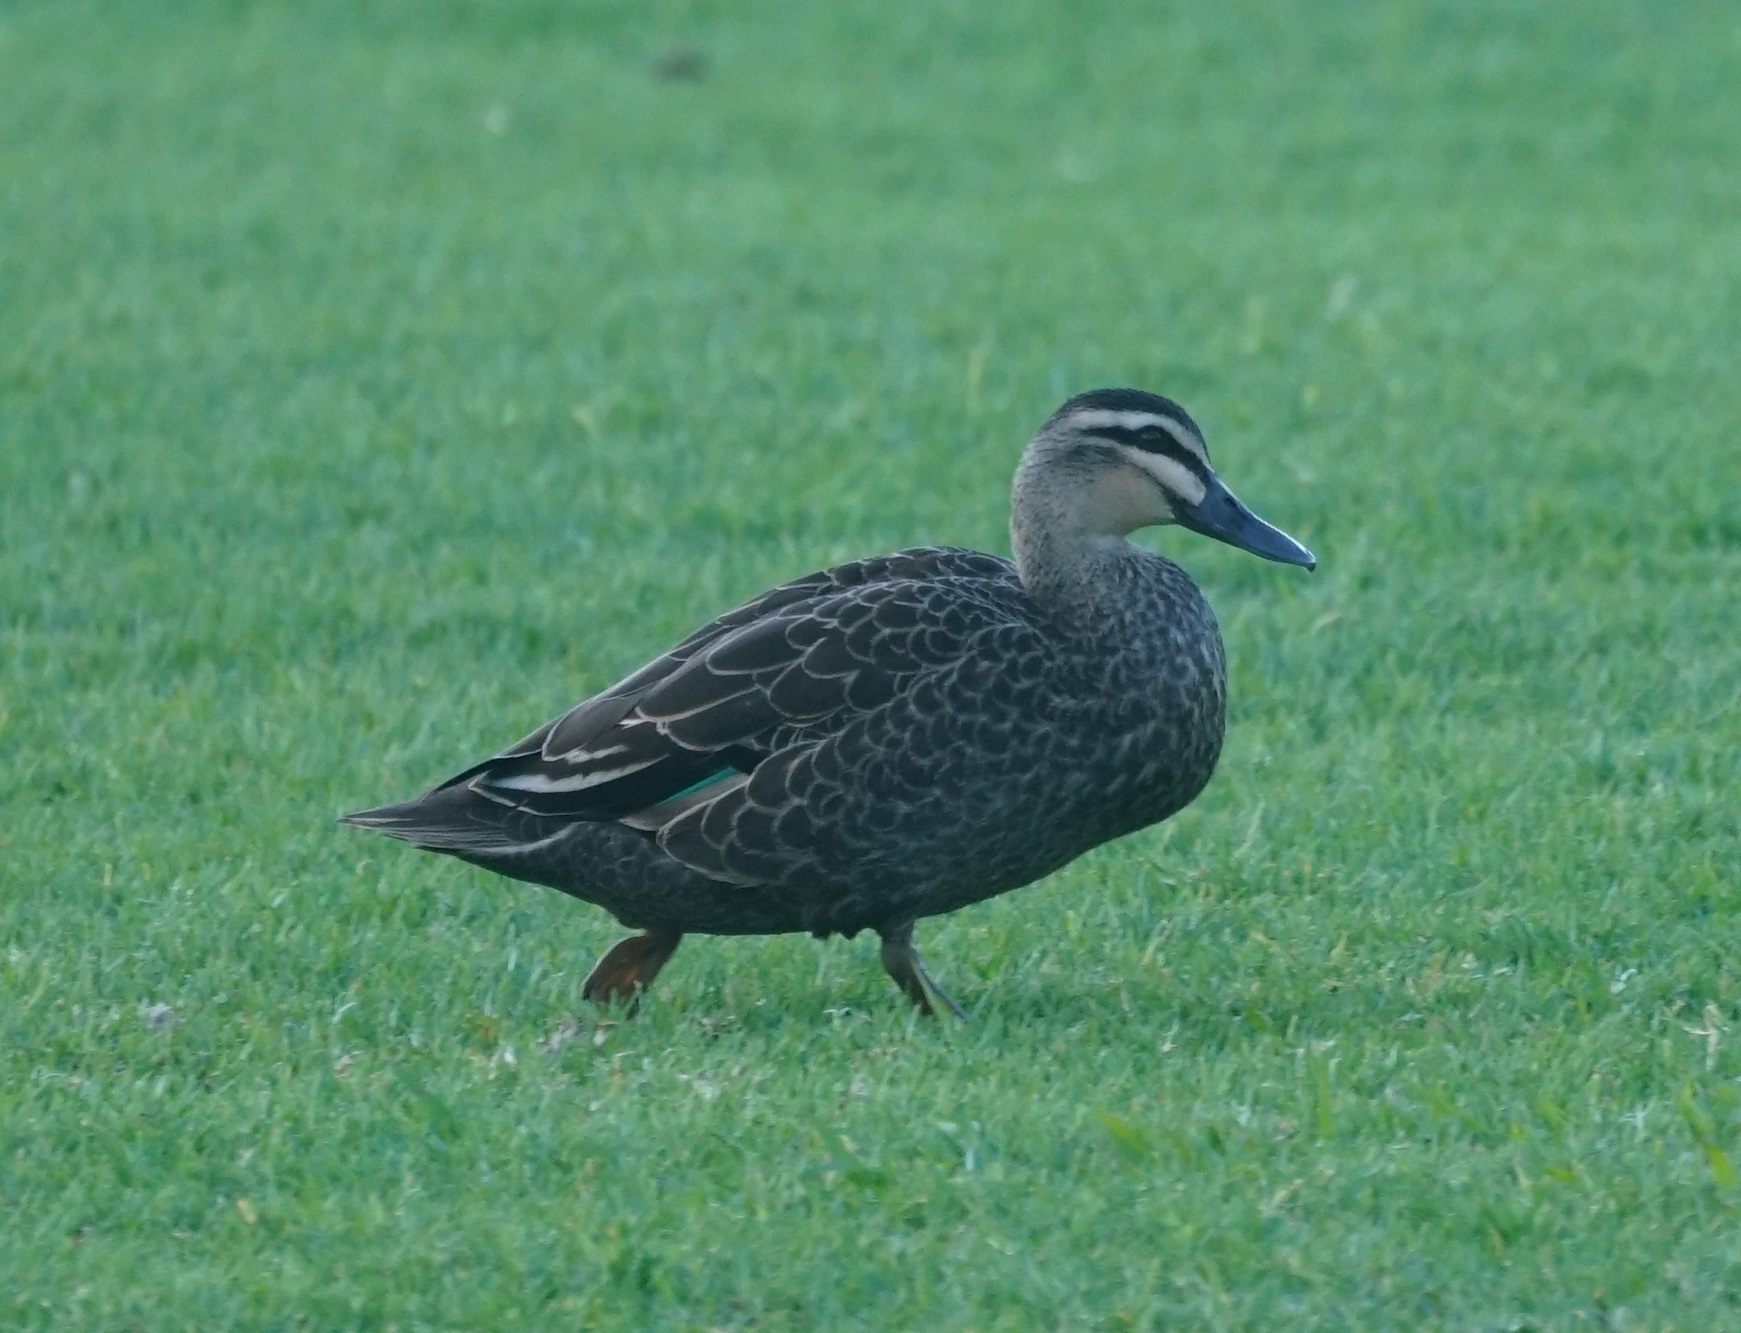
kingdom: Animalia
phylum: Chordata
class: Aves
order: Anseriformes
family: Anatidae
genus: Anas
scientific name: Anas superciliosa
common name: Pacific black duck
